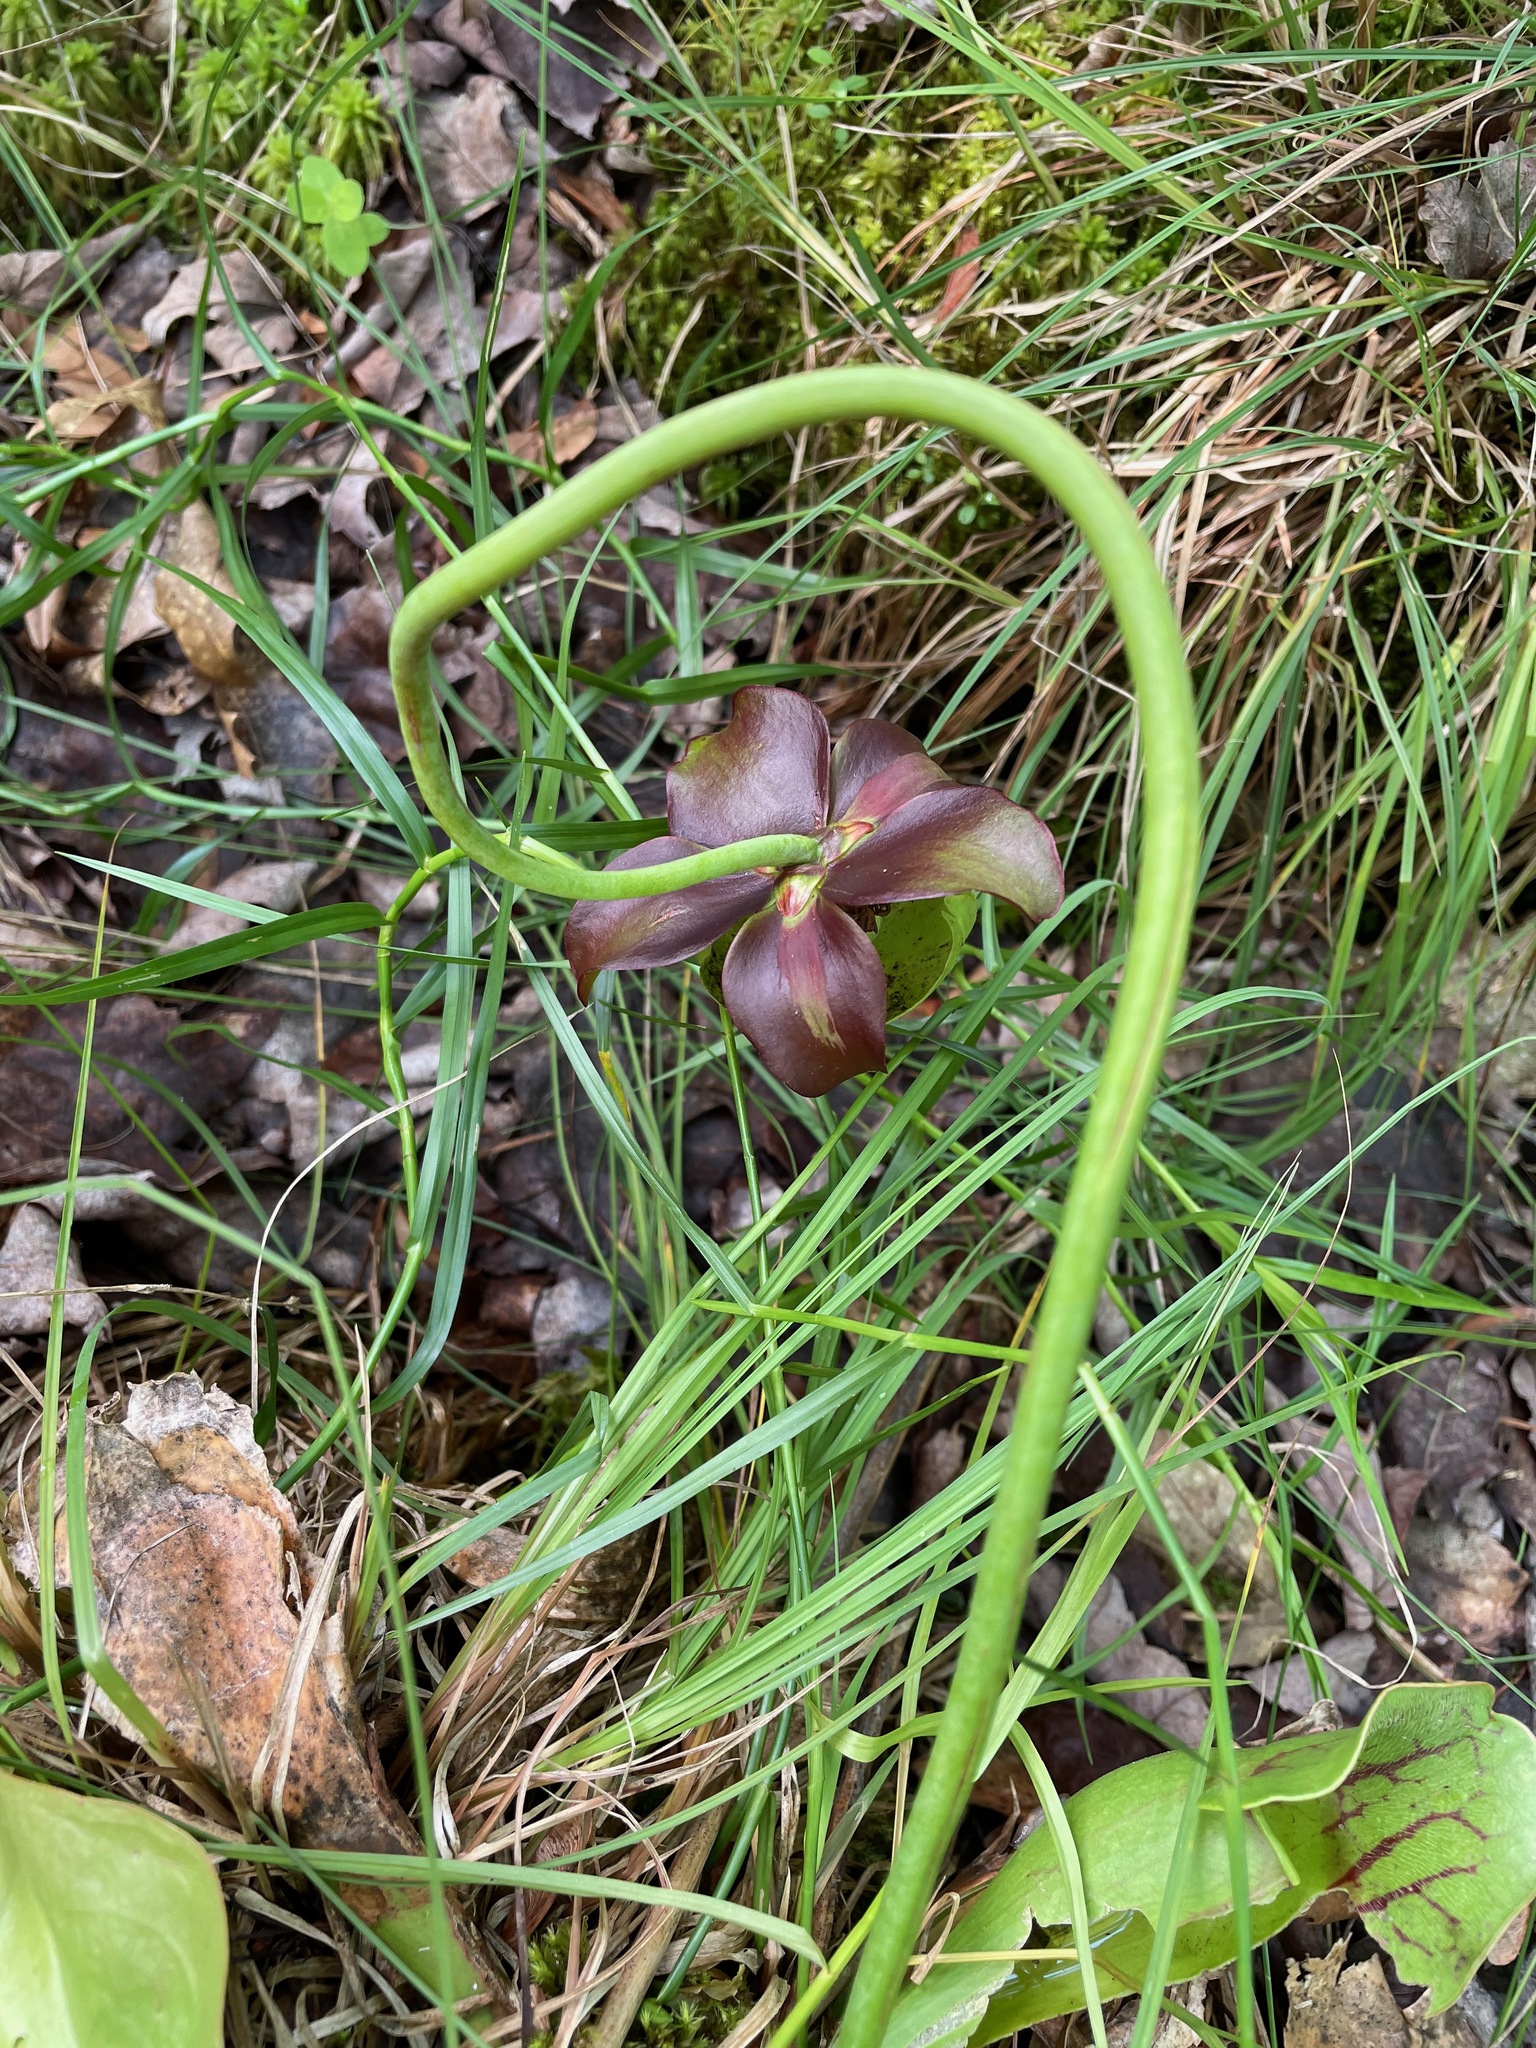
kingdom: Plantae
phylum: Tracheophyta
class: Magnoliopsida
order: Ericales
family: Sarraceniaceae
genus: Sarracenia
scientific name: Sarracenia purpurea
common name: Pitcherplant
